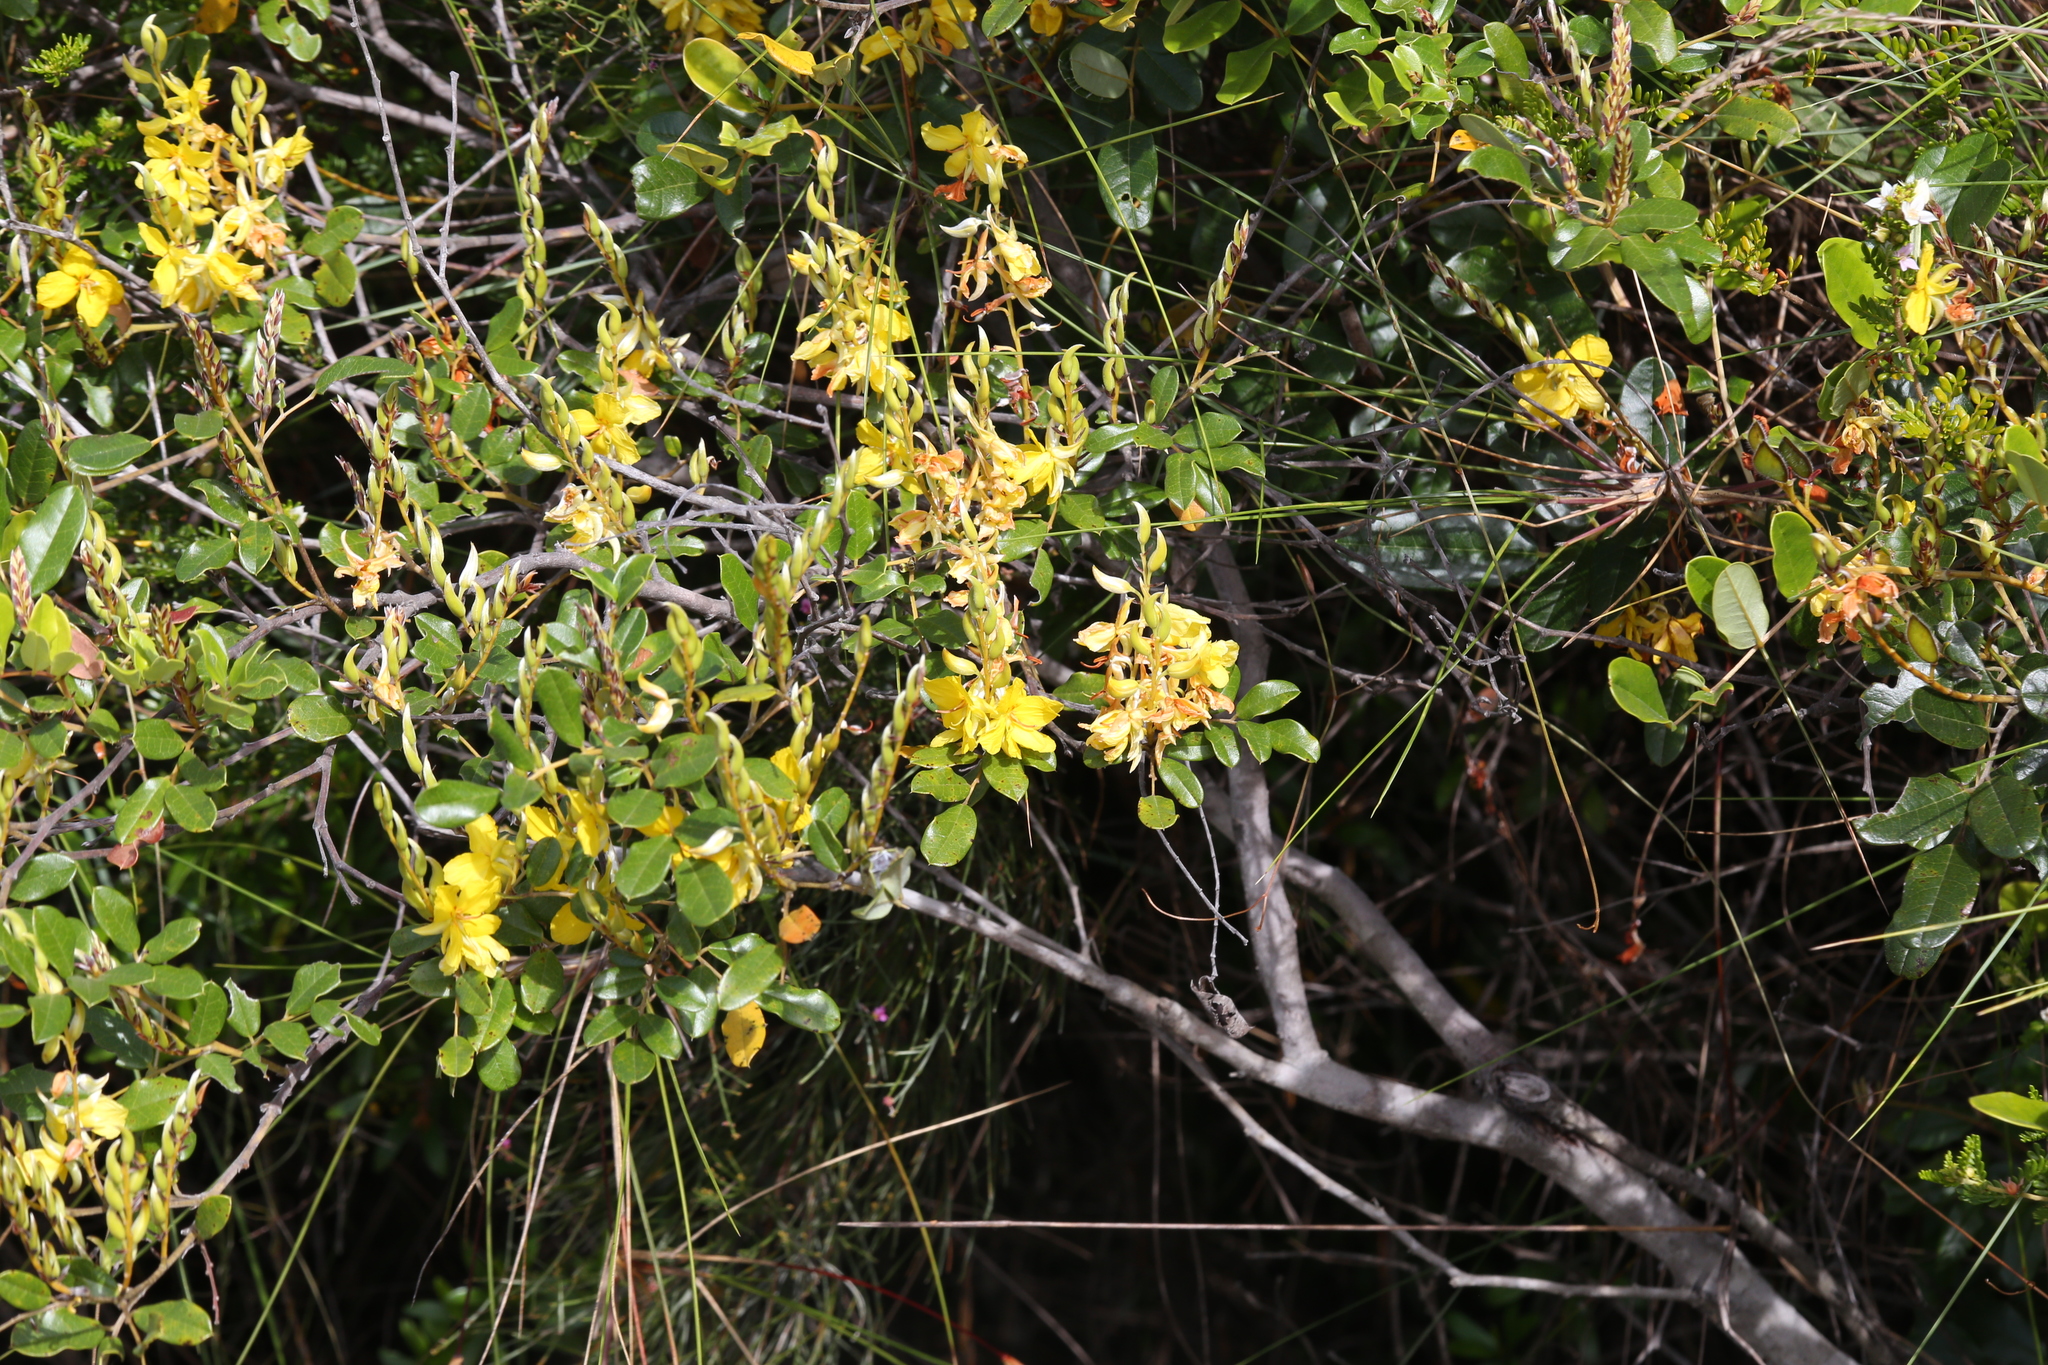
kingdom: Plantae
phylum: Tracheophyta
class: Magnoliopsida
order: Fabales
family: Fabaceae
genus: Labichea
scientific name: Labichea buettneriana
